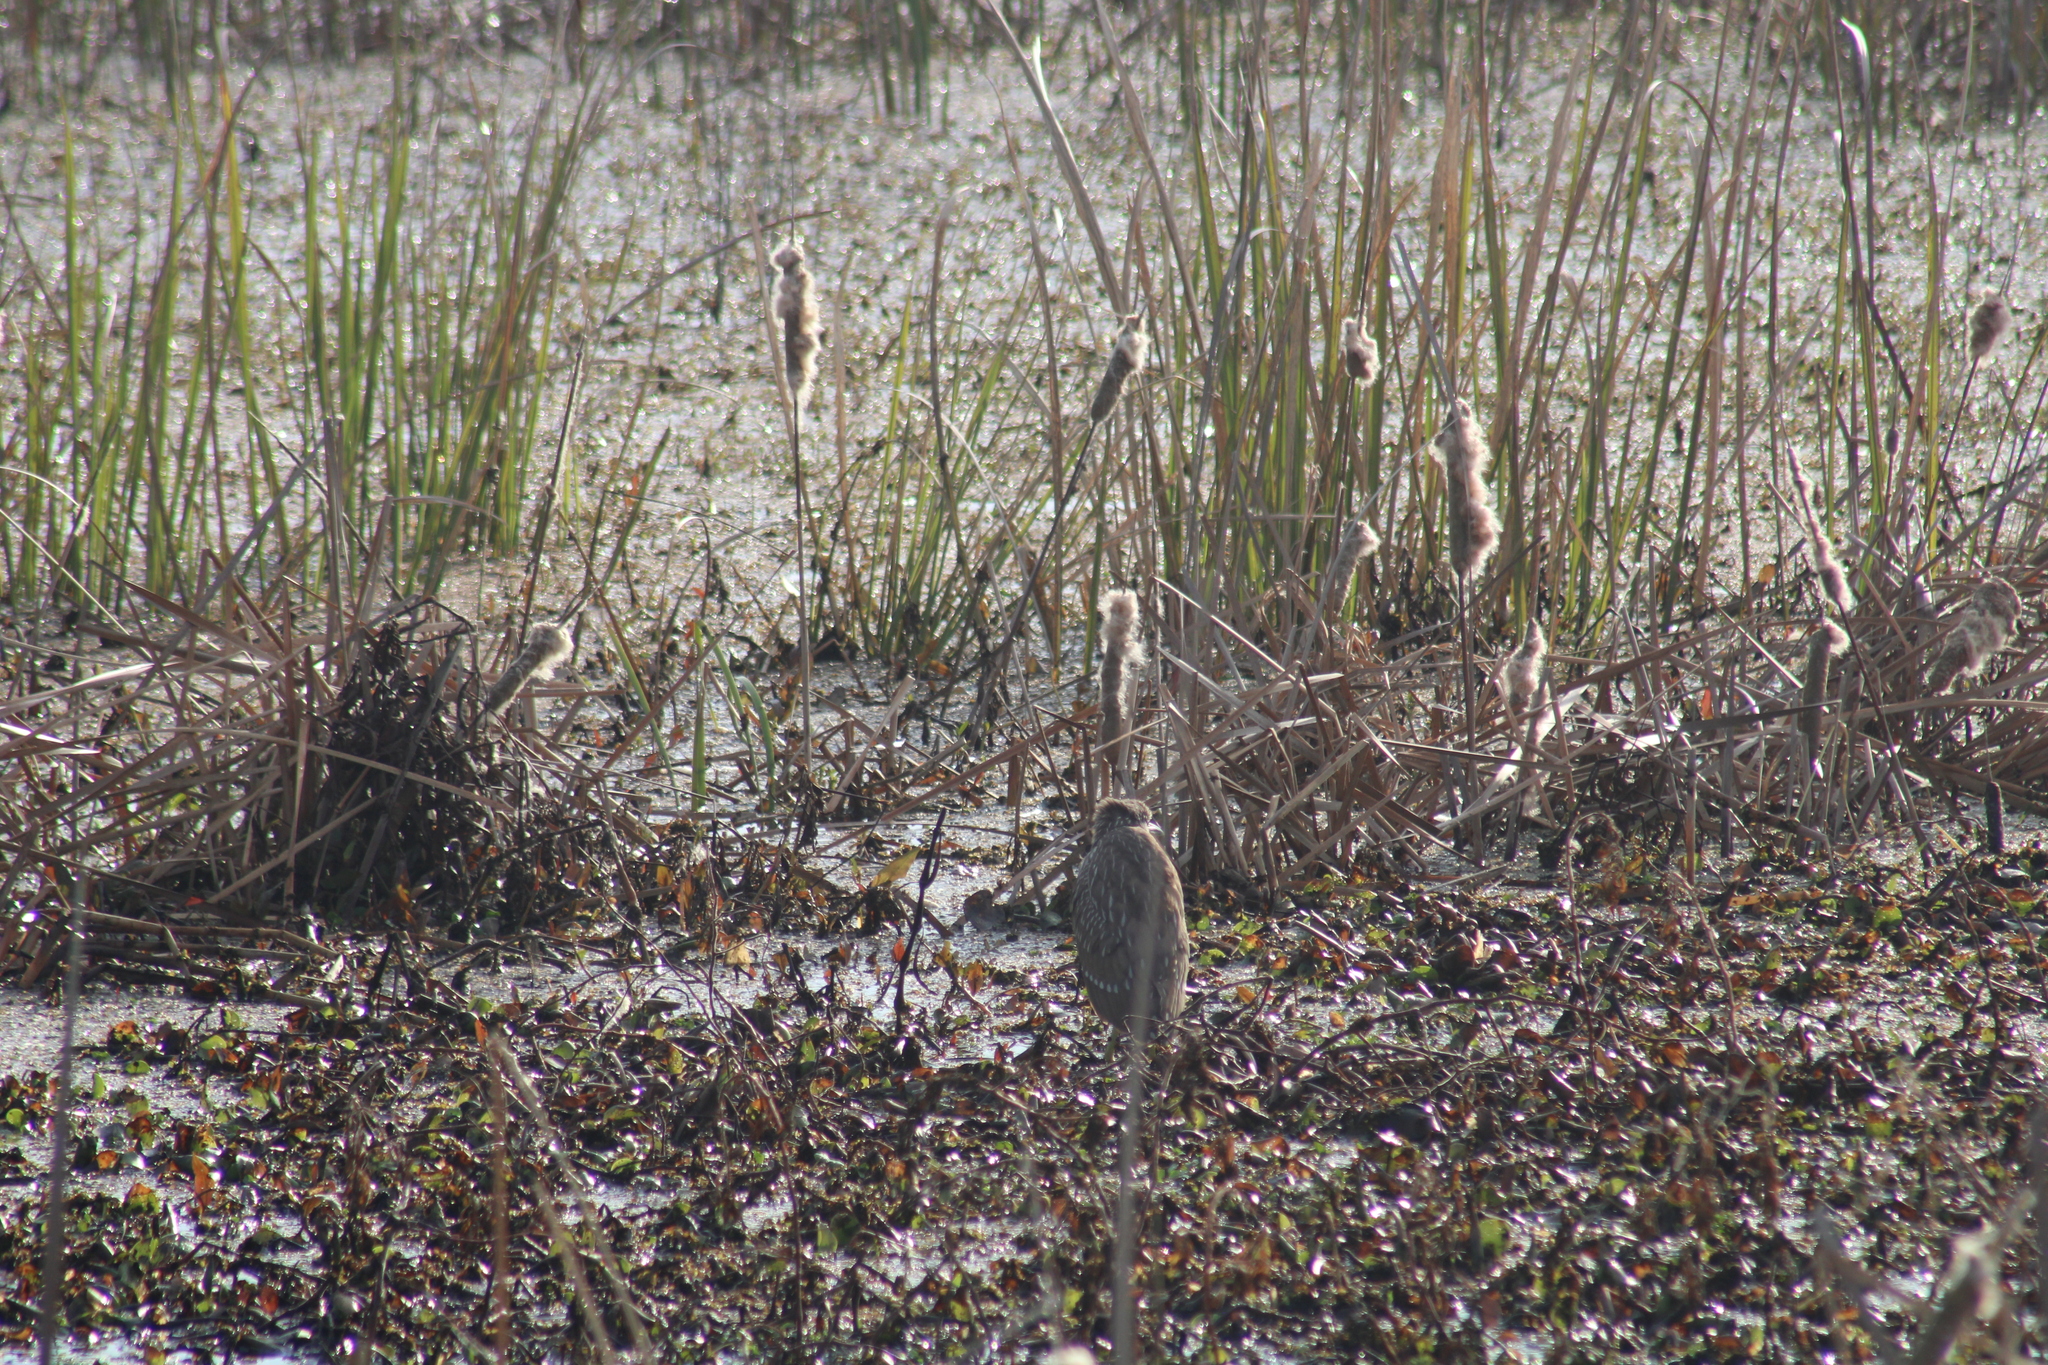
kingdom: Animalia
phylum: Chordata
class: Aves
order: Pelecaniformes
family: Ardeidae
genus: Nycticorax
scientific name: Nycticorax nycticorax
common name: Black-crowned night heron
